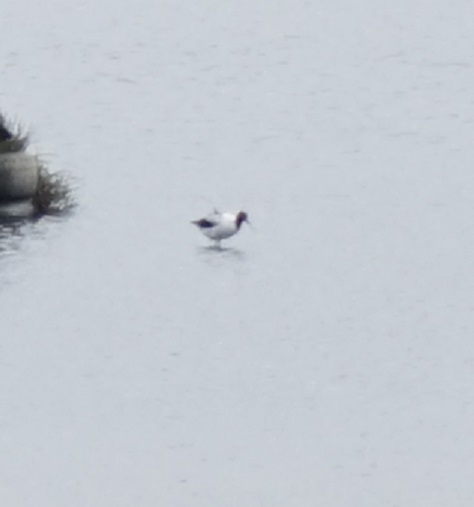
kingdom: Animalia
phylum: Chordata
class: Aves
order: Charadriiformes
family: Recurvirostridae
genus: Recurvirostra
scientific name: Recurvirostra novaehollandiae
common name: Red-necked avocet
